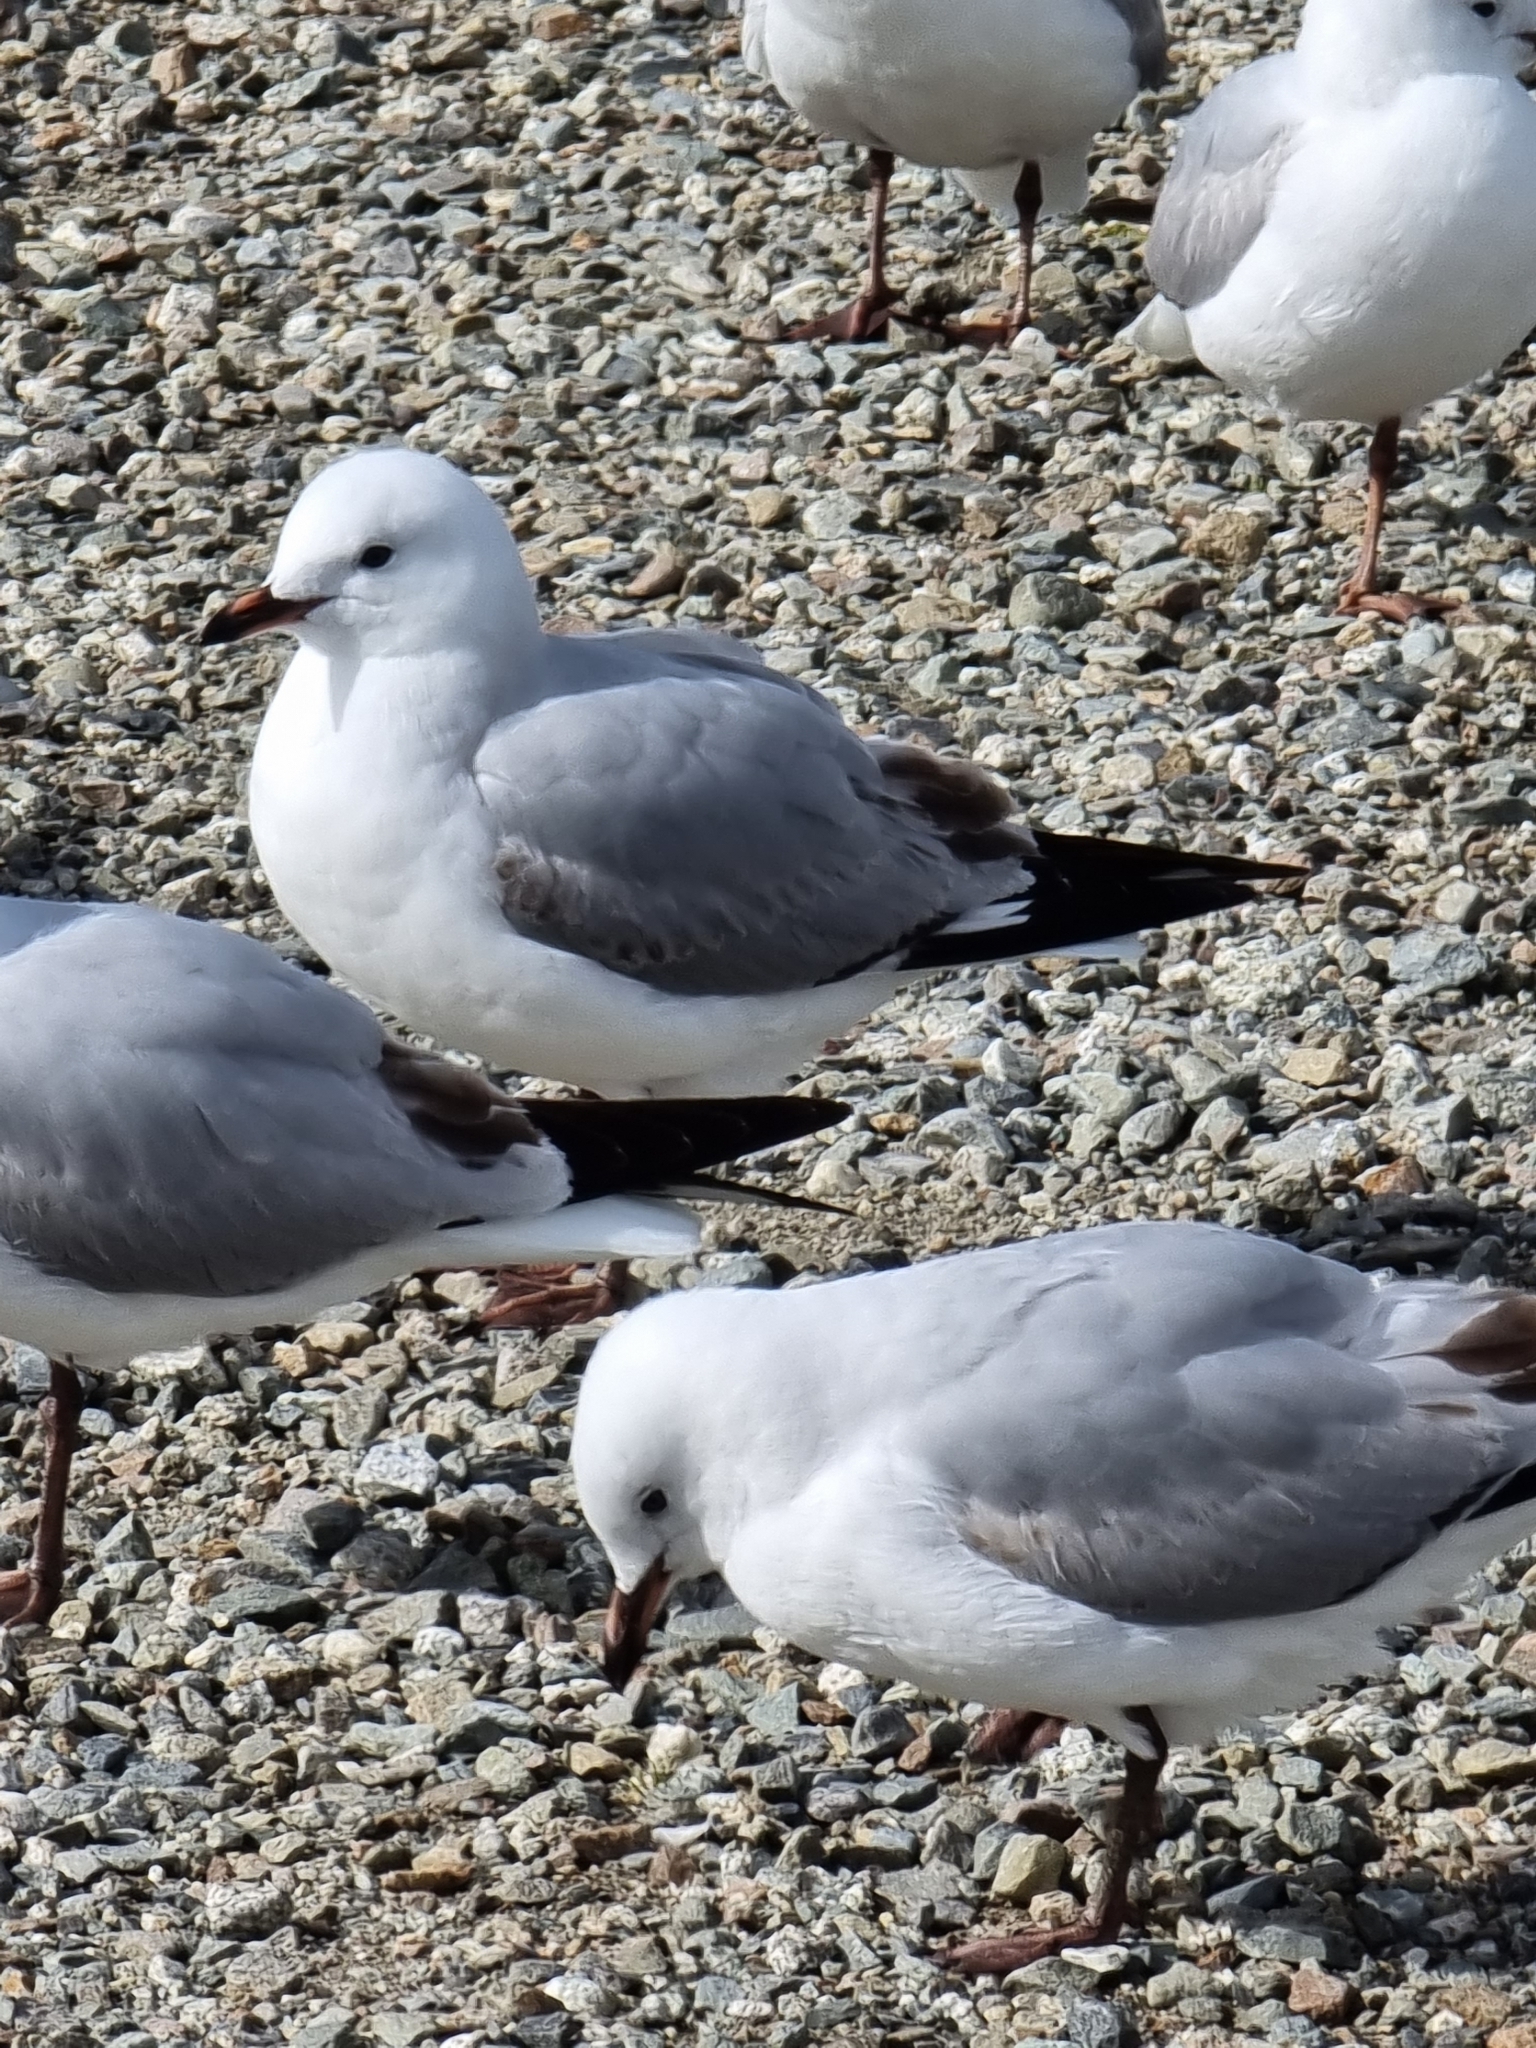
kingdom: Animalia
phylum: Chordata
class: Aves
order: Charadriiformes
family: Laridae
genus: Chroicocephalus
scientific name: Chroicocephalus novaehollandiae
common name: Silver gull
